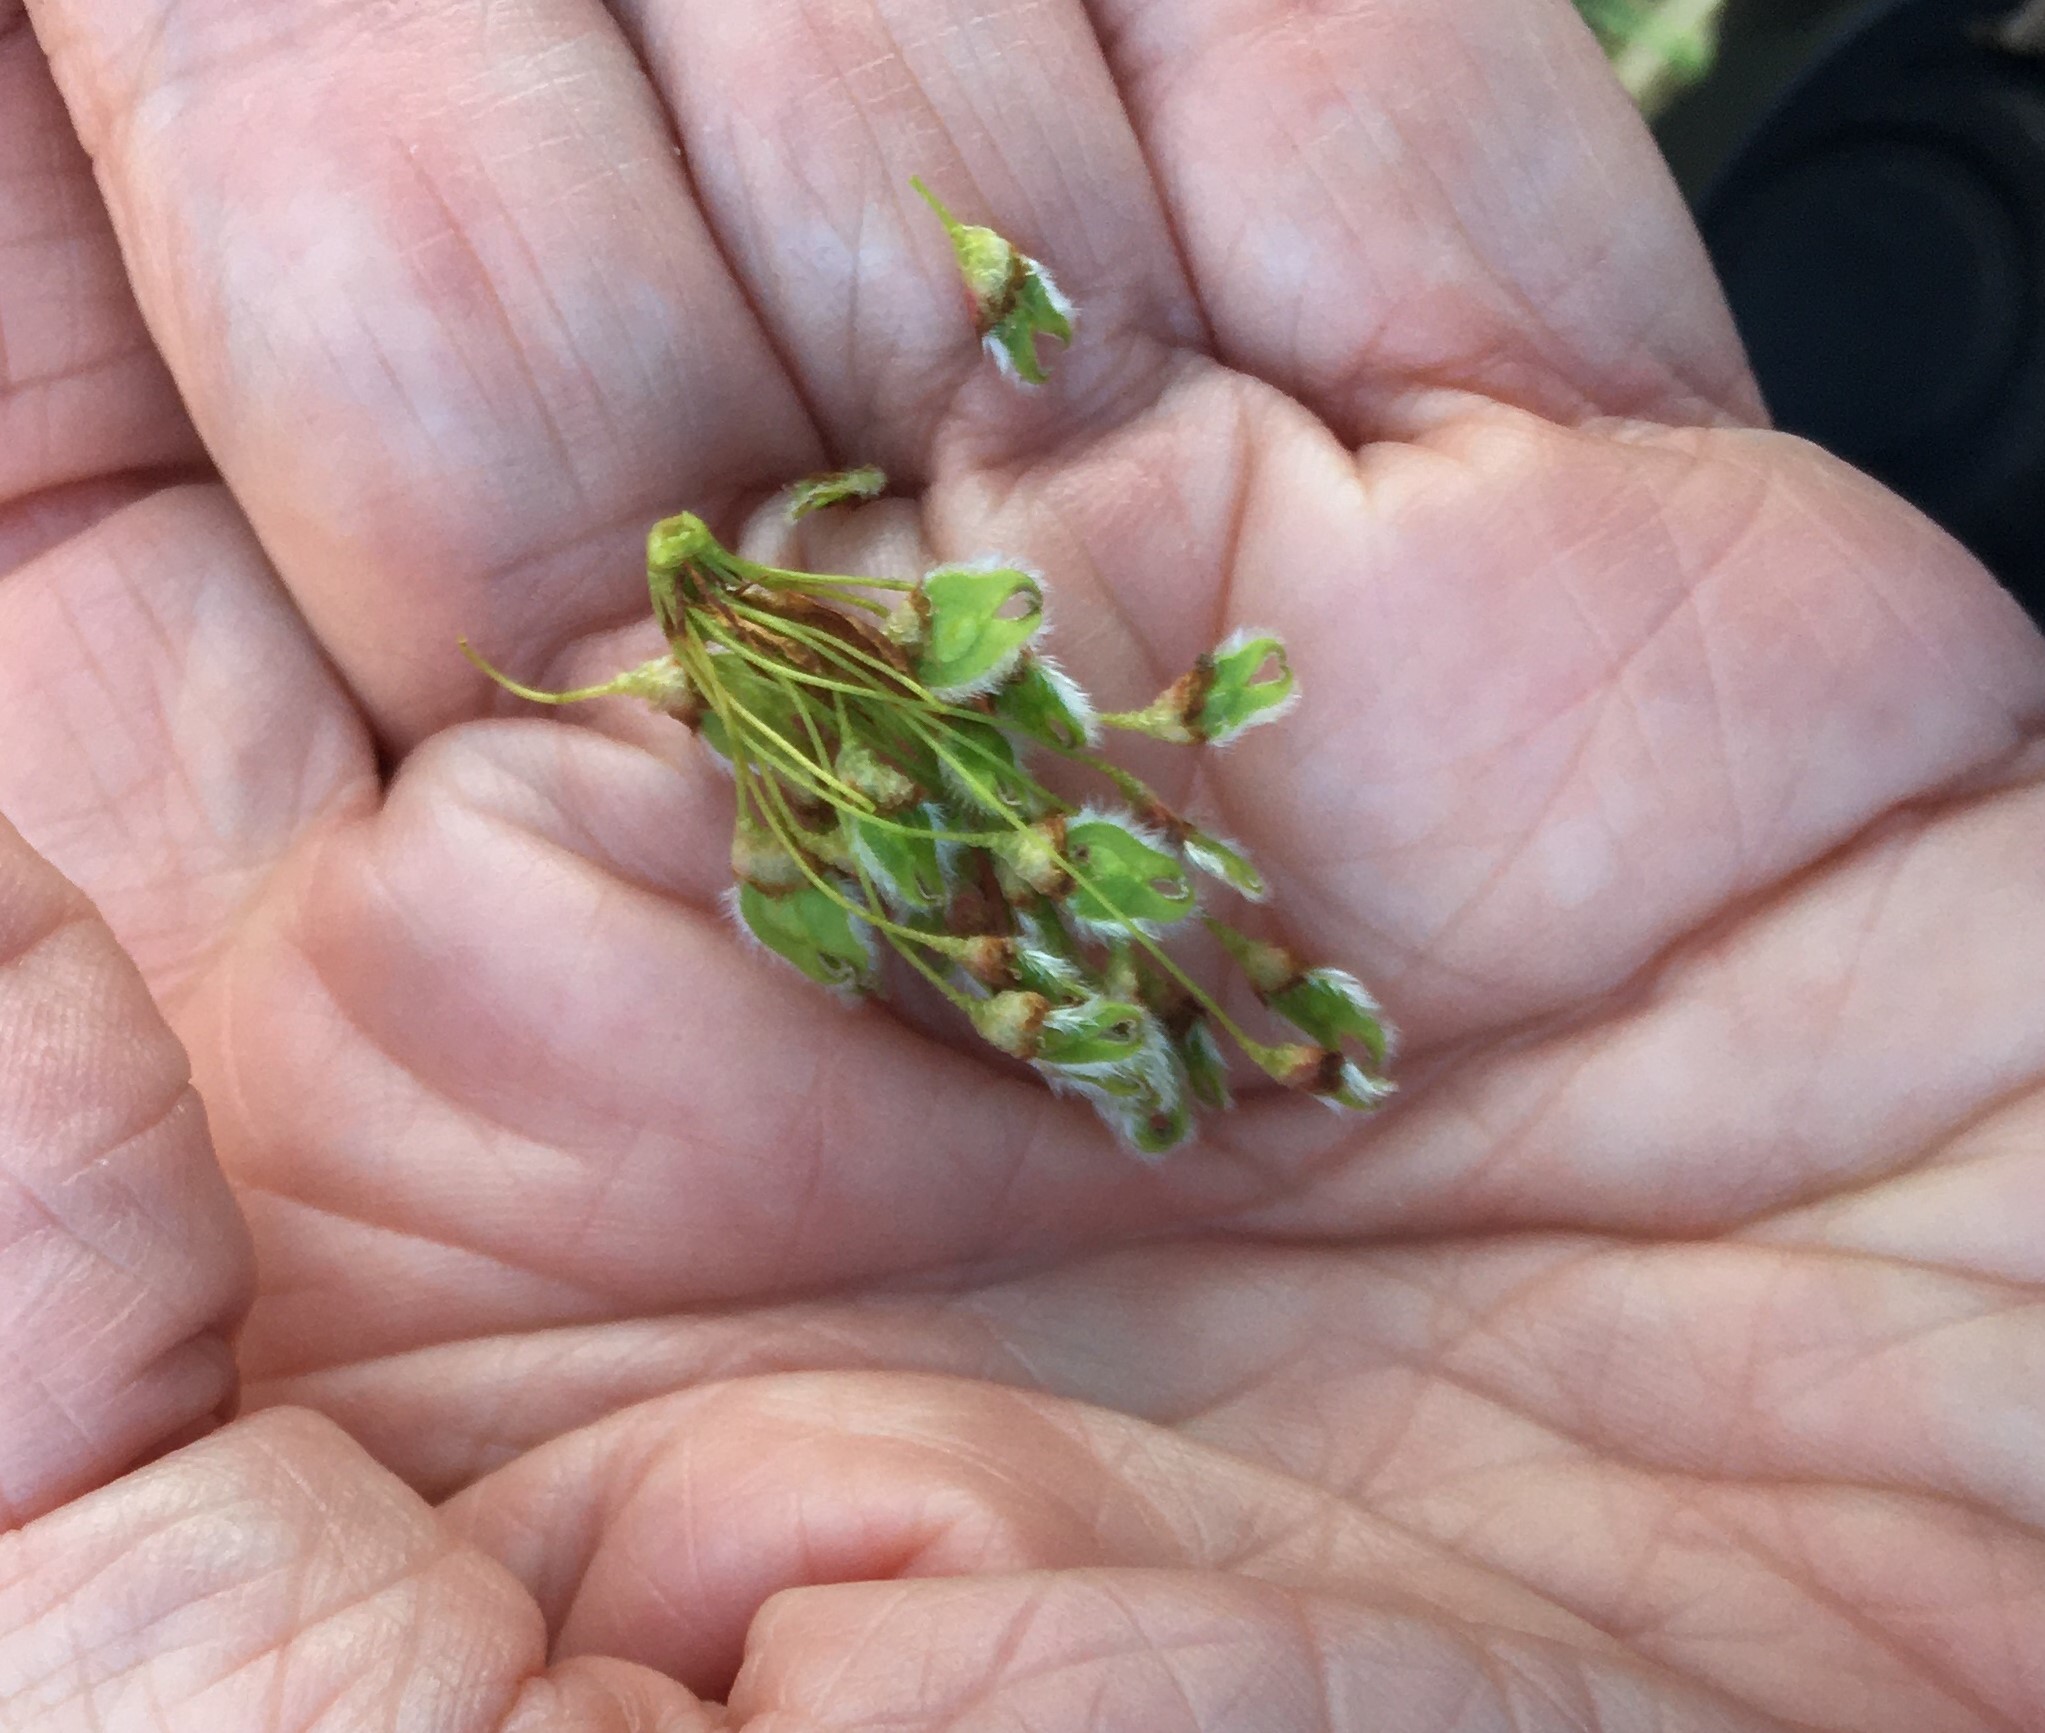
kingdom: Plantae
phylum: Tracheophyta
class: Magnoliopsida
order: Rosales
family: Ulmaceae
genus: Ulmus
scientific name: Ulmus americana
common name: American elm
